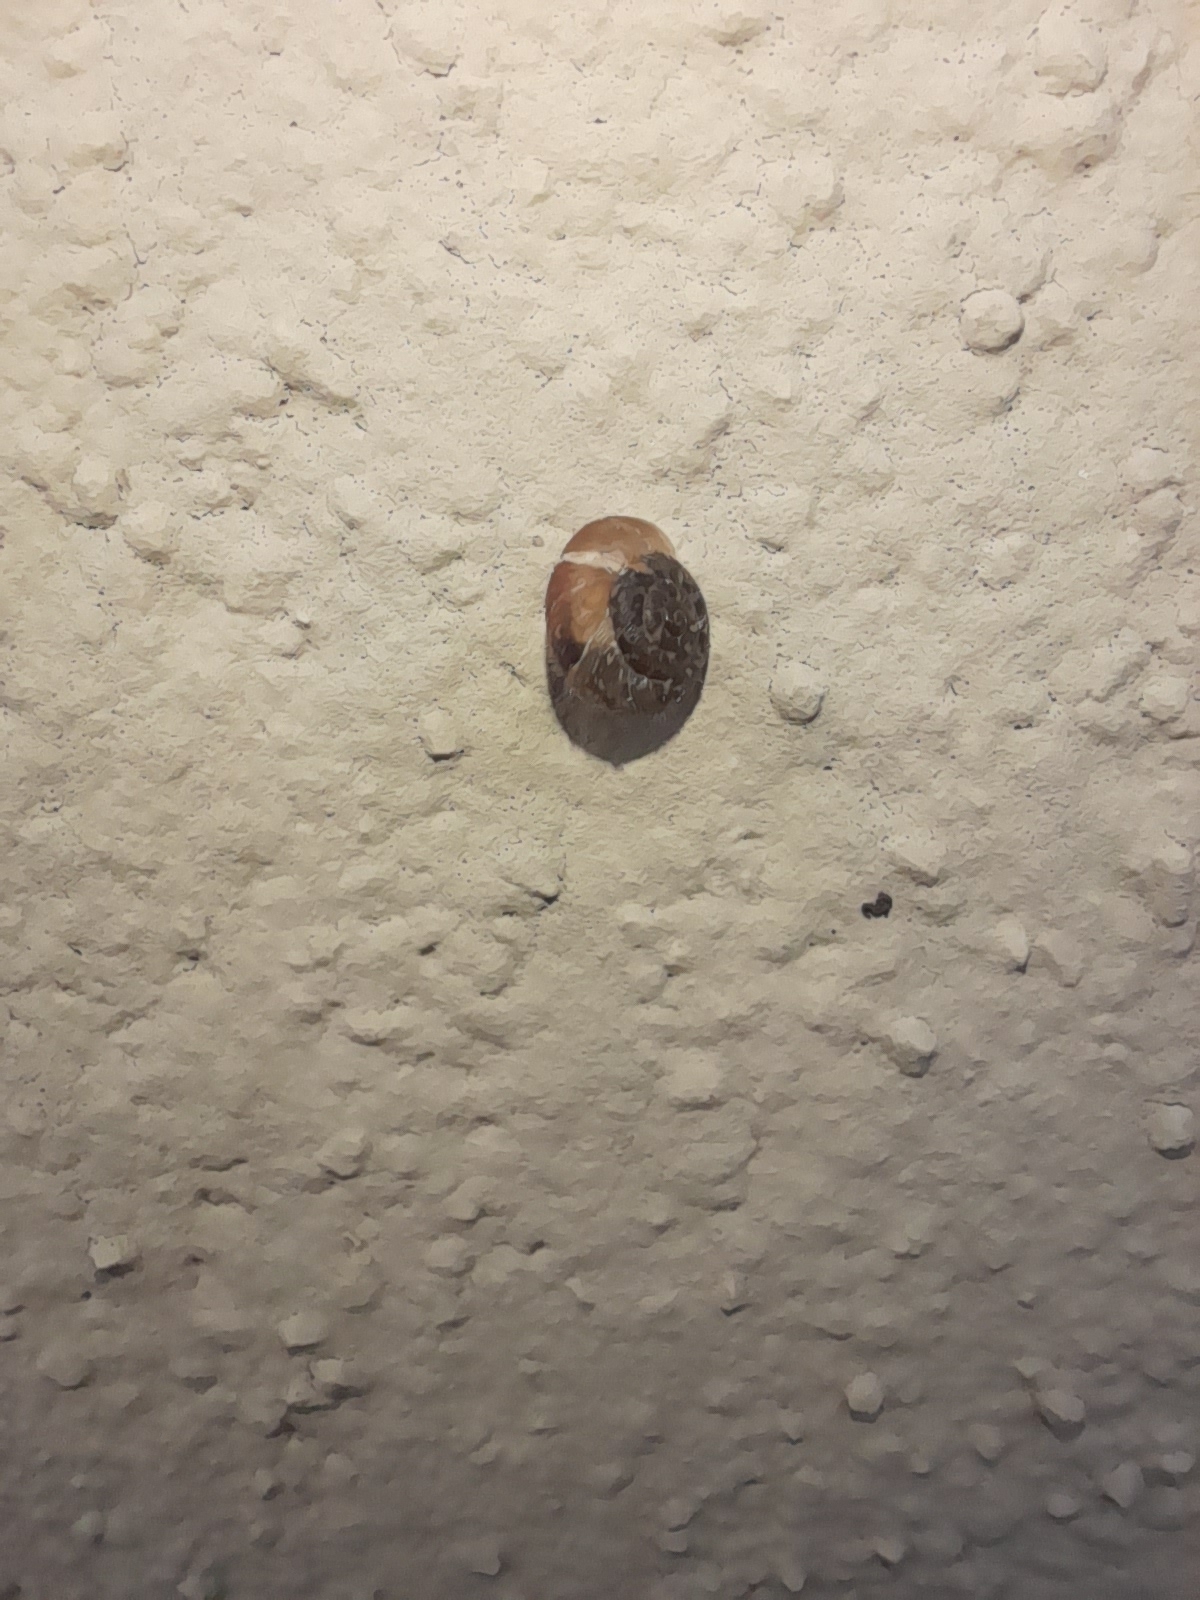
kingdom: Animalia
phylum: Mollusca
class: Gastropoda
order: Stylommatophora
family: Geomitridae
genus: Xerotricha
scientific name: Xerotricha conspurcata
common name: Snail
